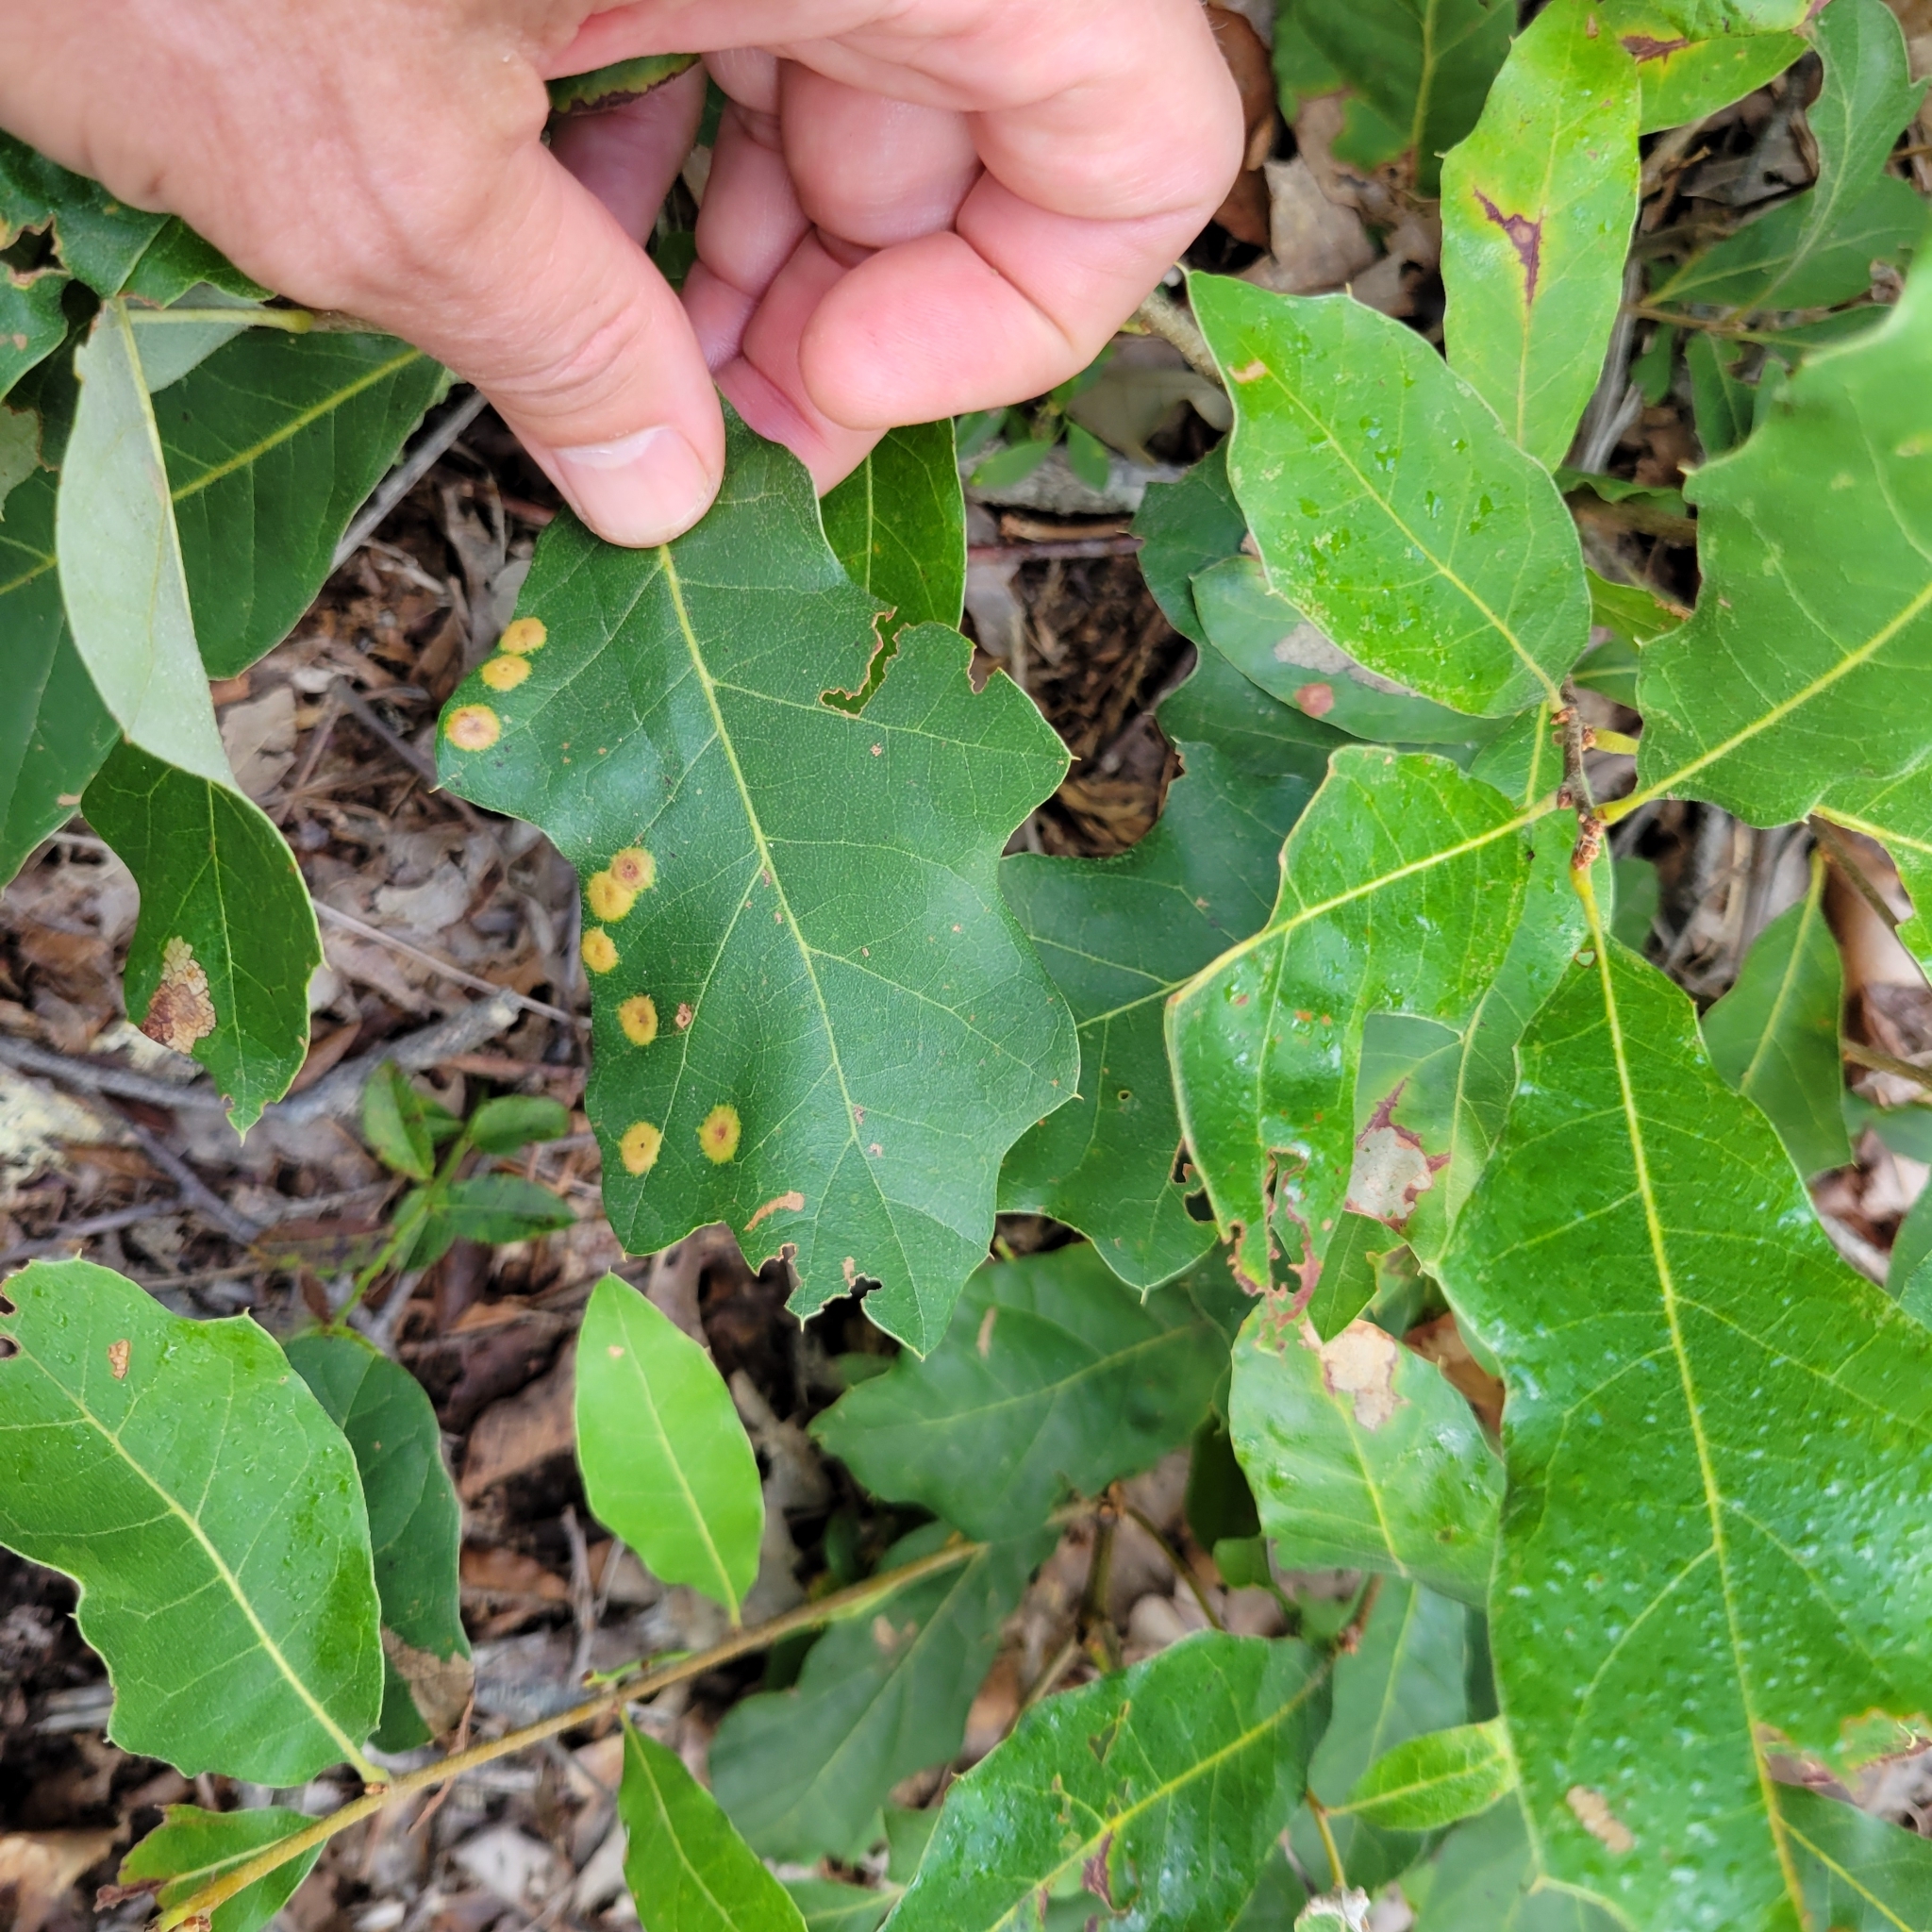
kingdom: Animalia
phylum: Arthropoda
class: Insecta
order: Diptera
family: Cecidomyiidae
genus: Polystepha
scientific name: Polystepha pustuloides
